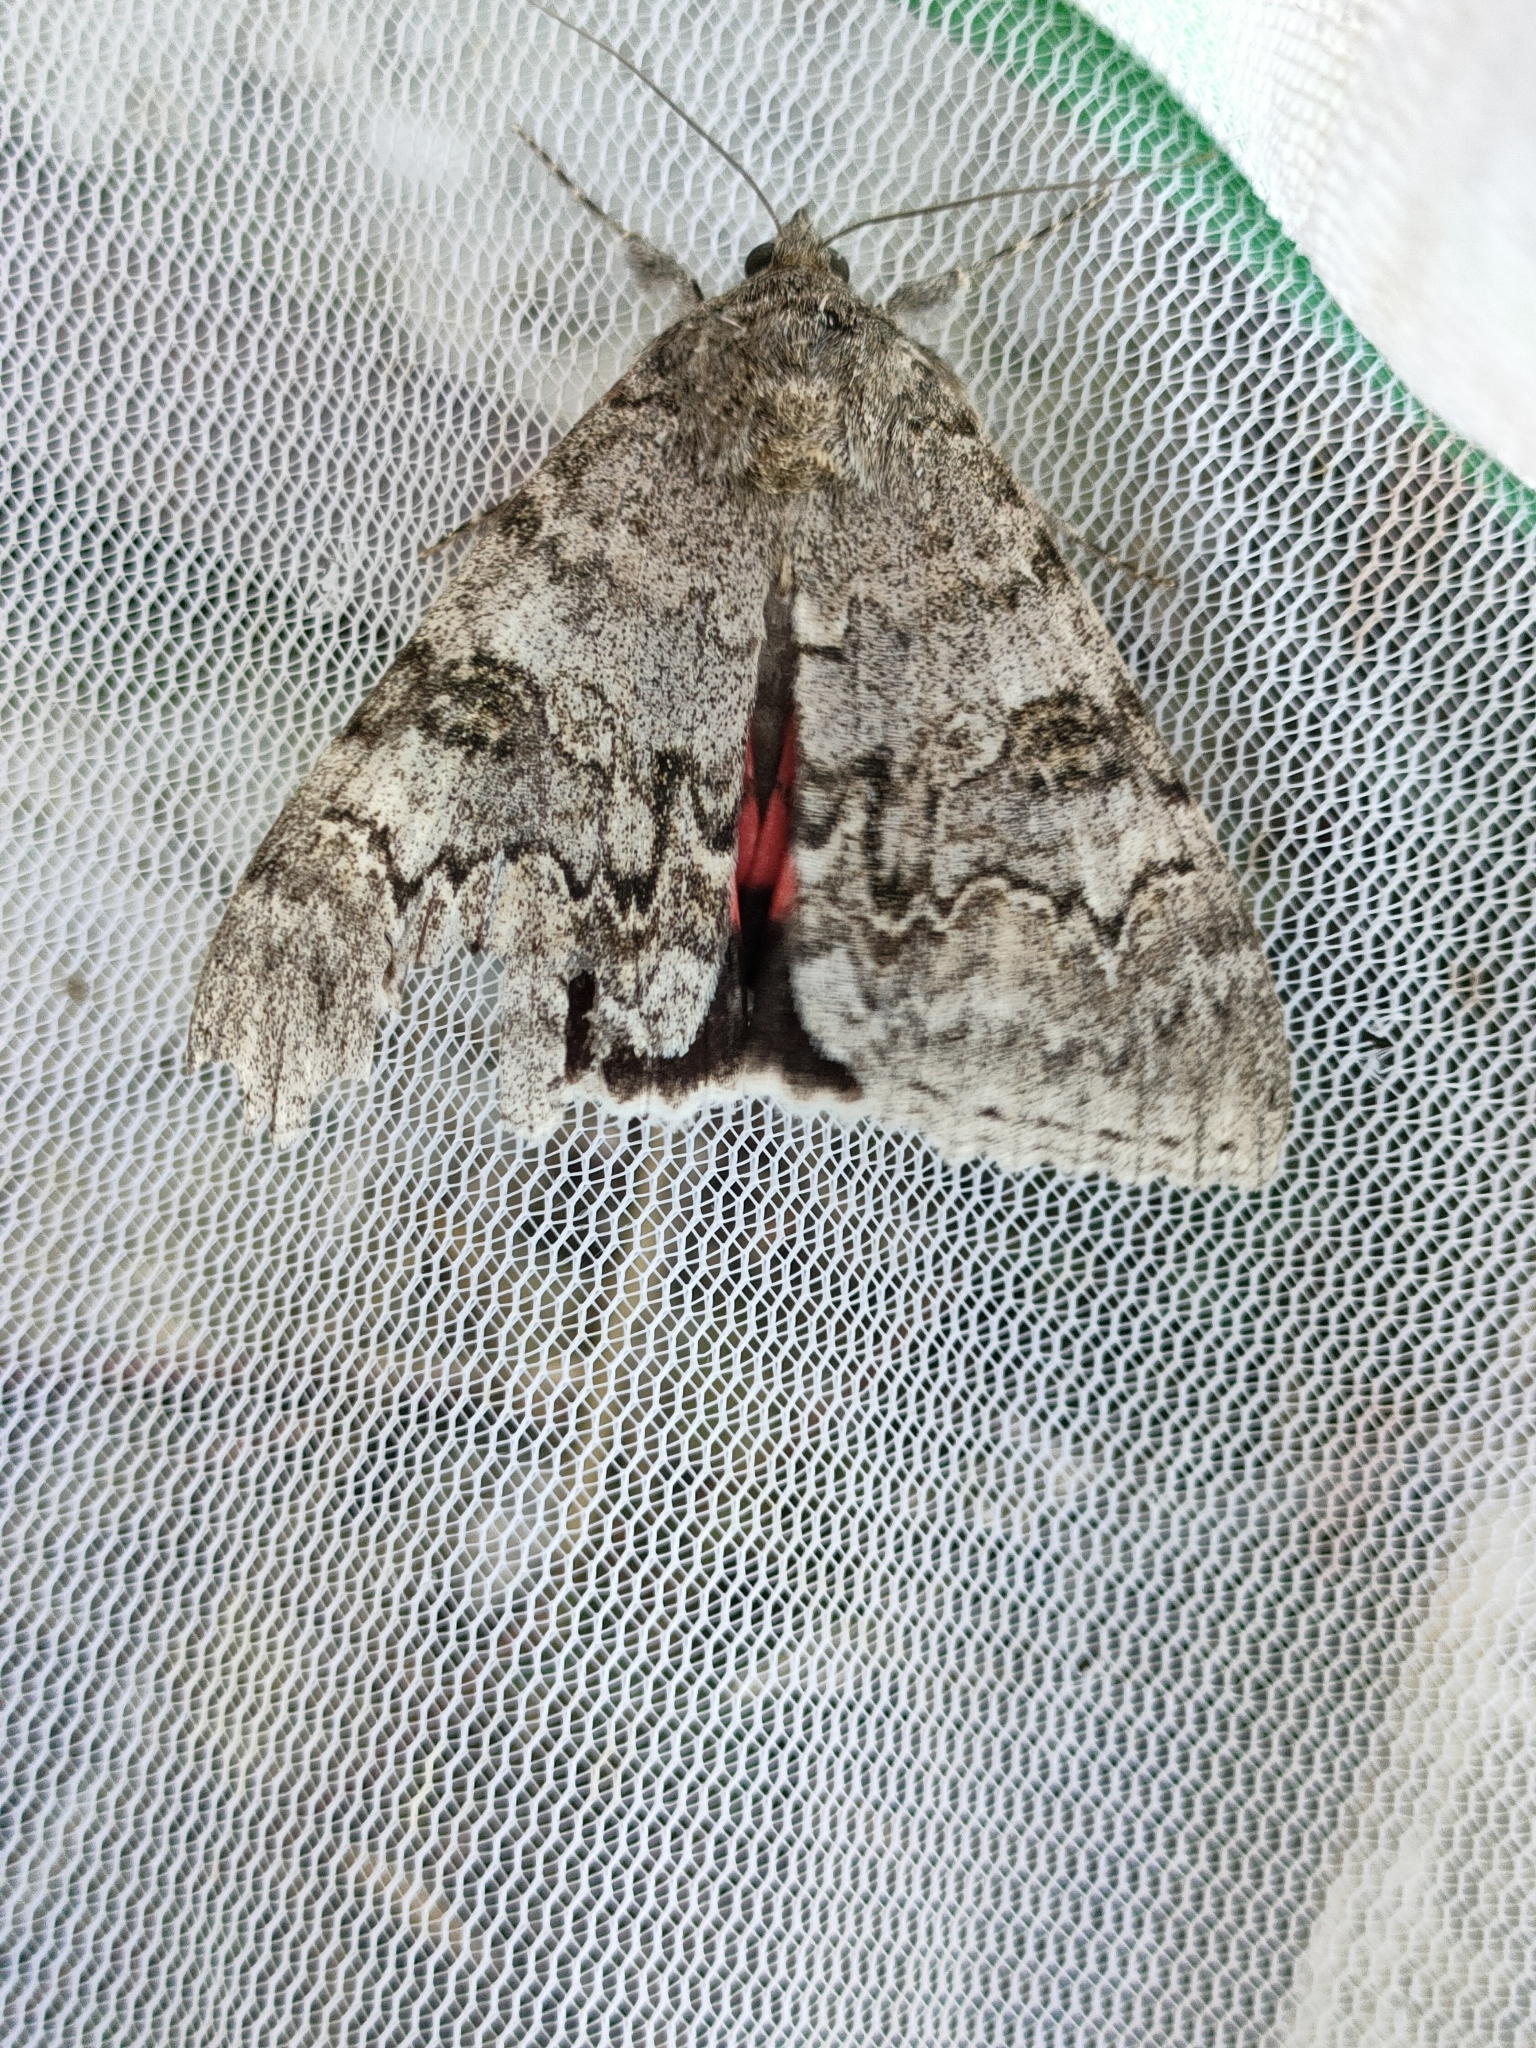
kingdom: Animalia
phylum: Arthropoda
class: Insecta
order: Lepidoptera
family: Erebidae
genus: Catocala
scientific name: Catocala nupta
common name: Red underwing
